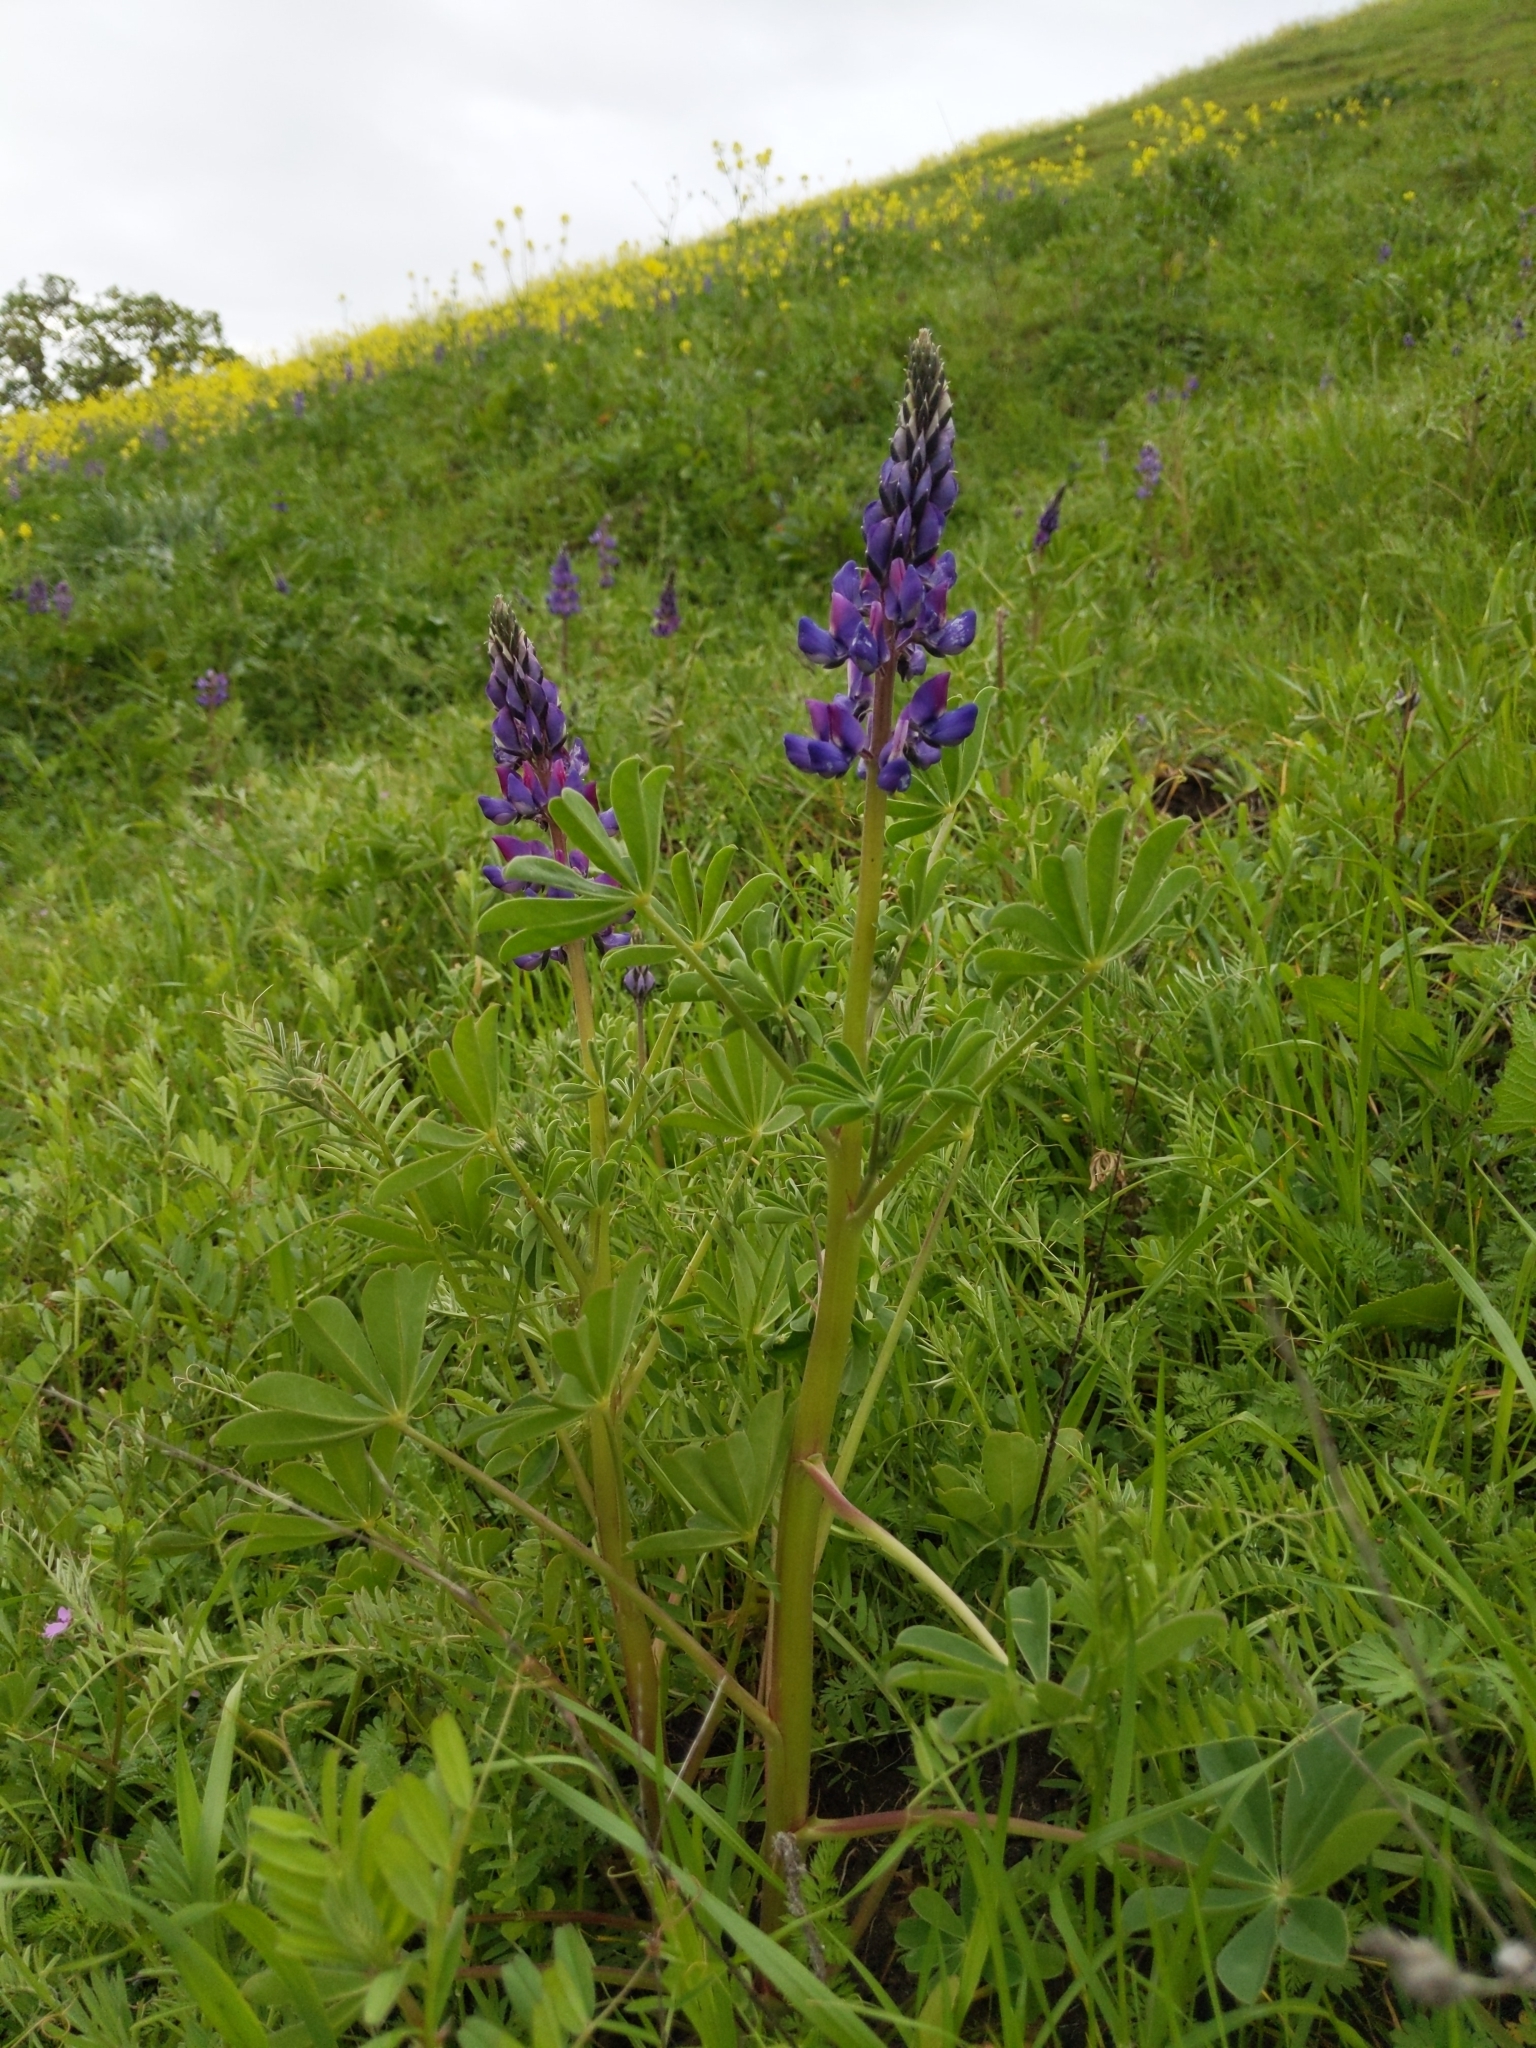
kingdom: Plantae
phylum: Tracheophyta
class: Magnoliopsida
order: Fabales
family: Fabaceae
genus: Lupinus
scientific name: Lupinus succulentus
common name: Arroyo lupine
